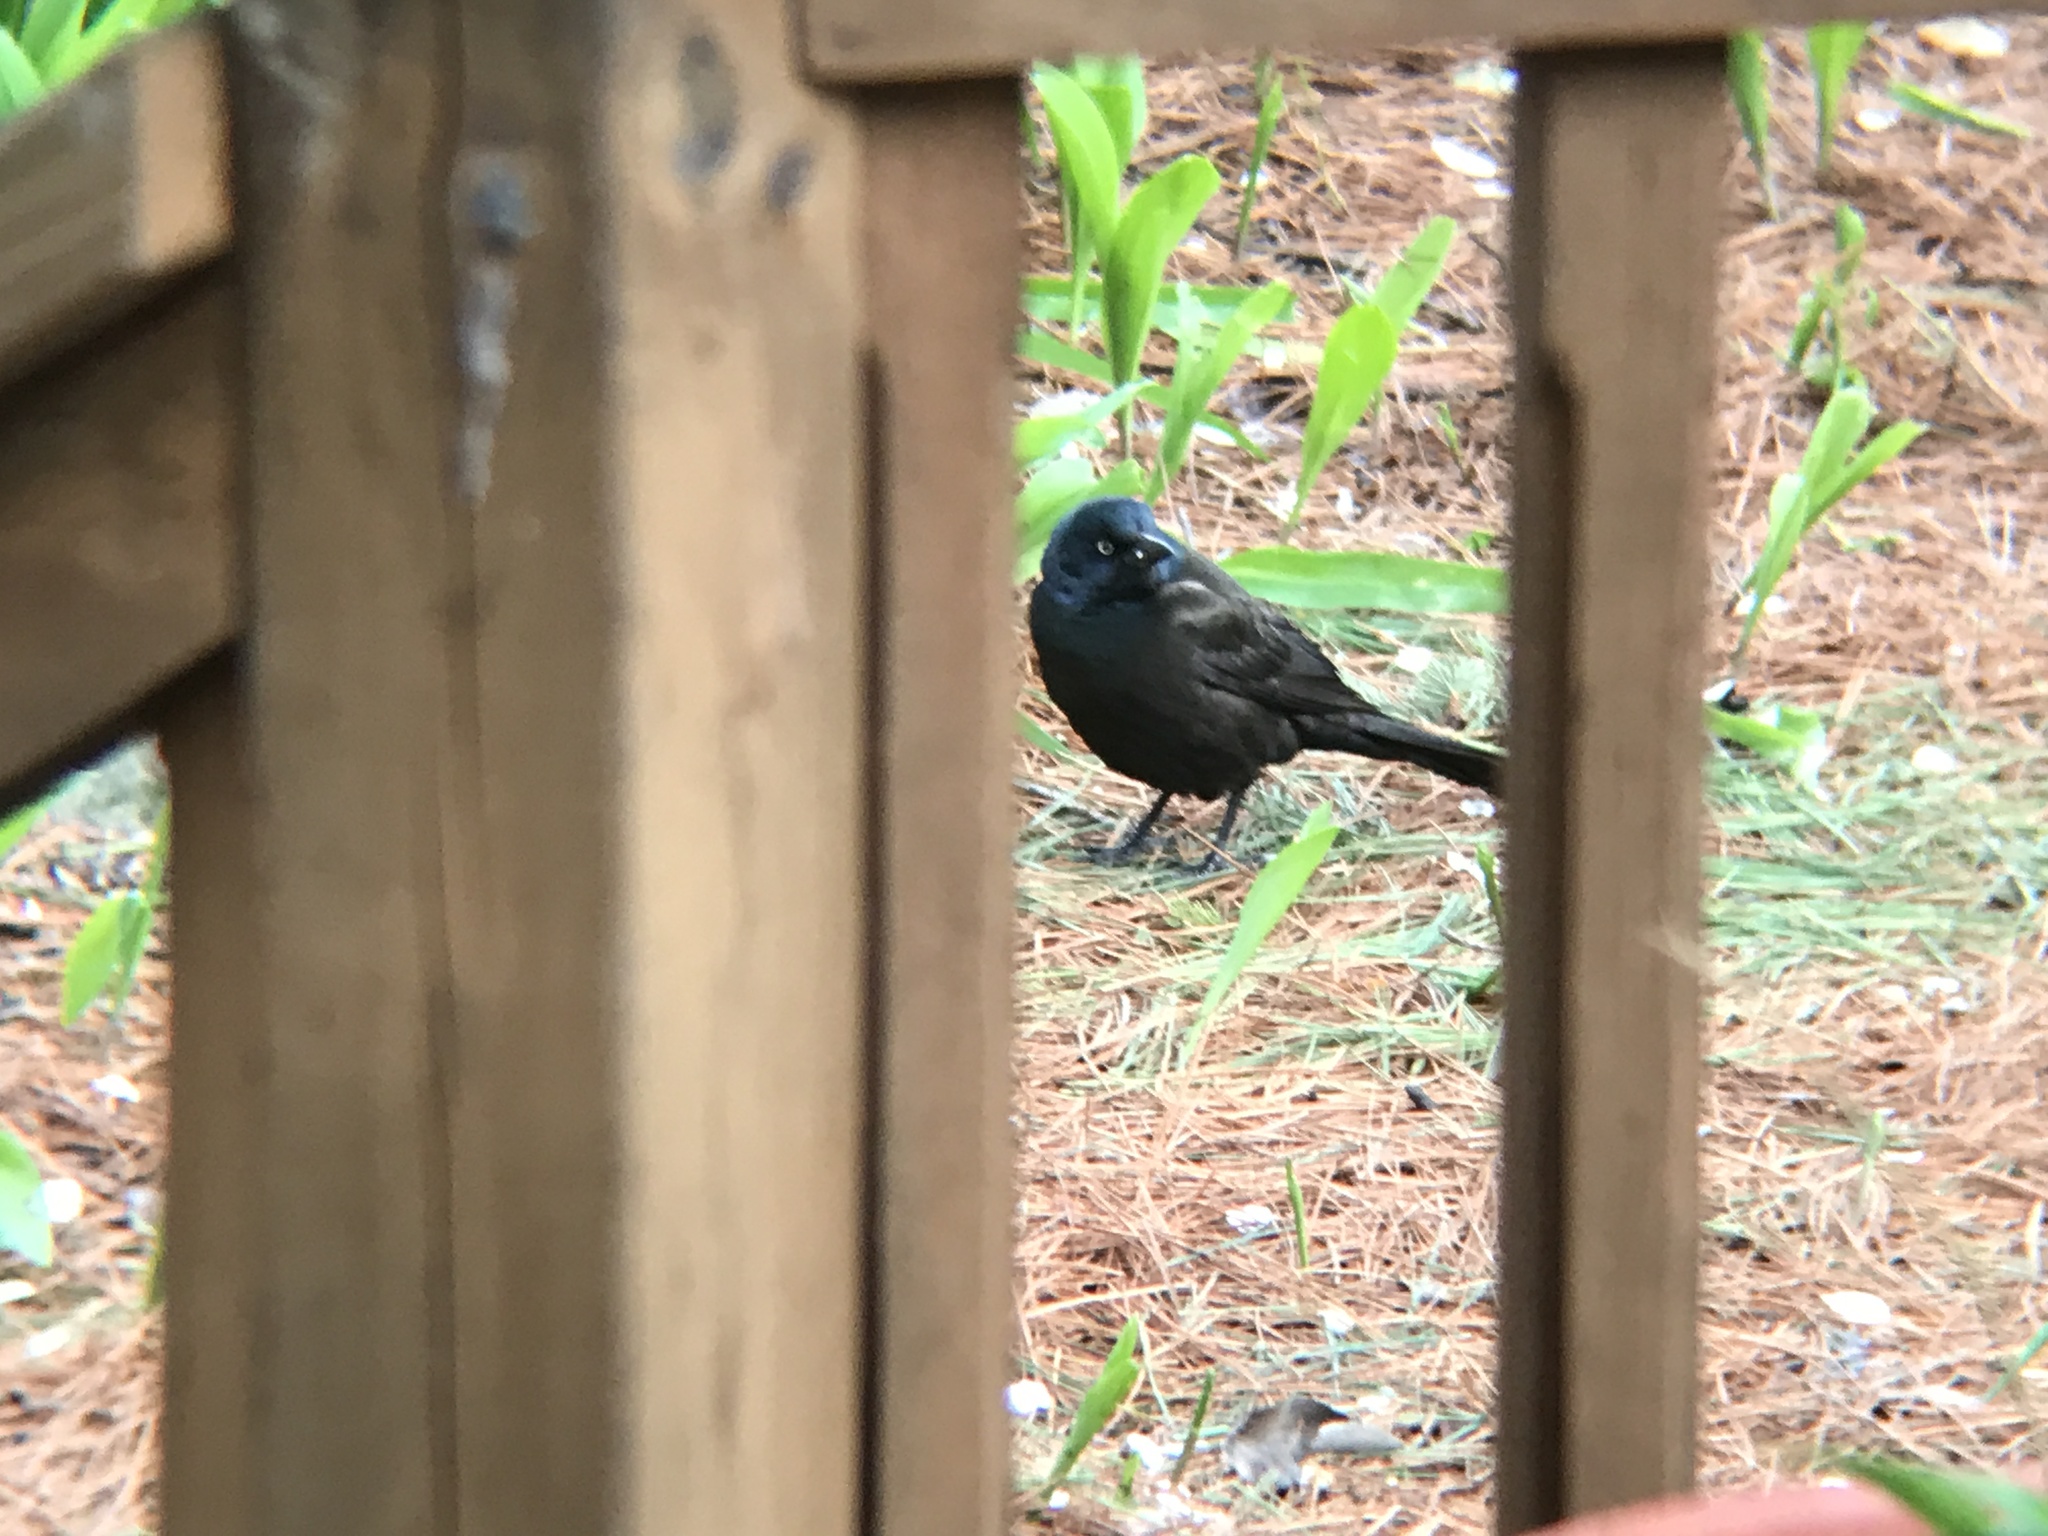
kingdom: Animalia
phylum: Chordata
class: Aves
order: Passeriformes
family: Icteridae
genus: Quiscalus
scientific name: Quiscalus quiscula
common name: Common grackle
